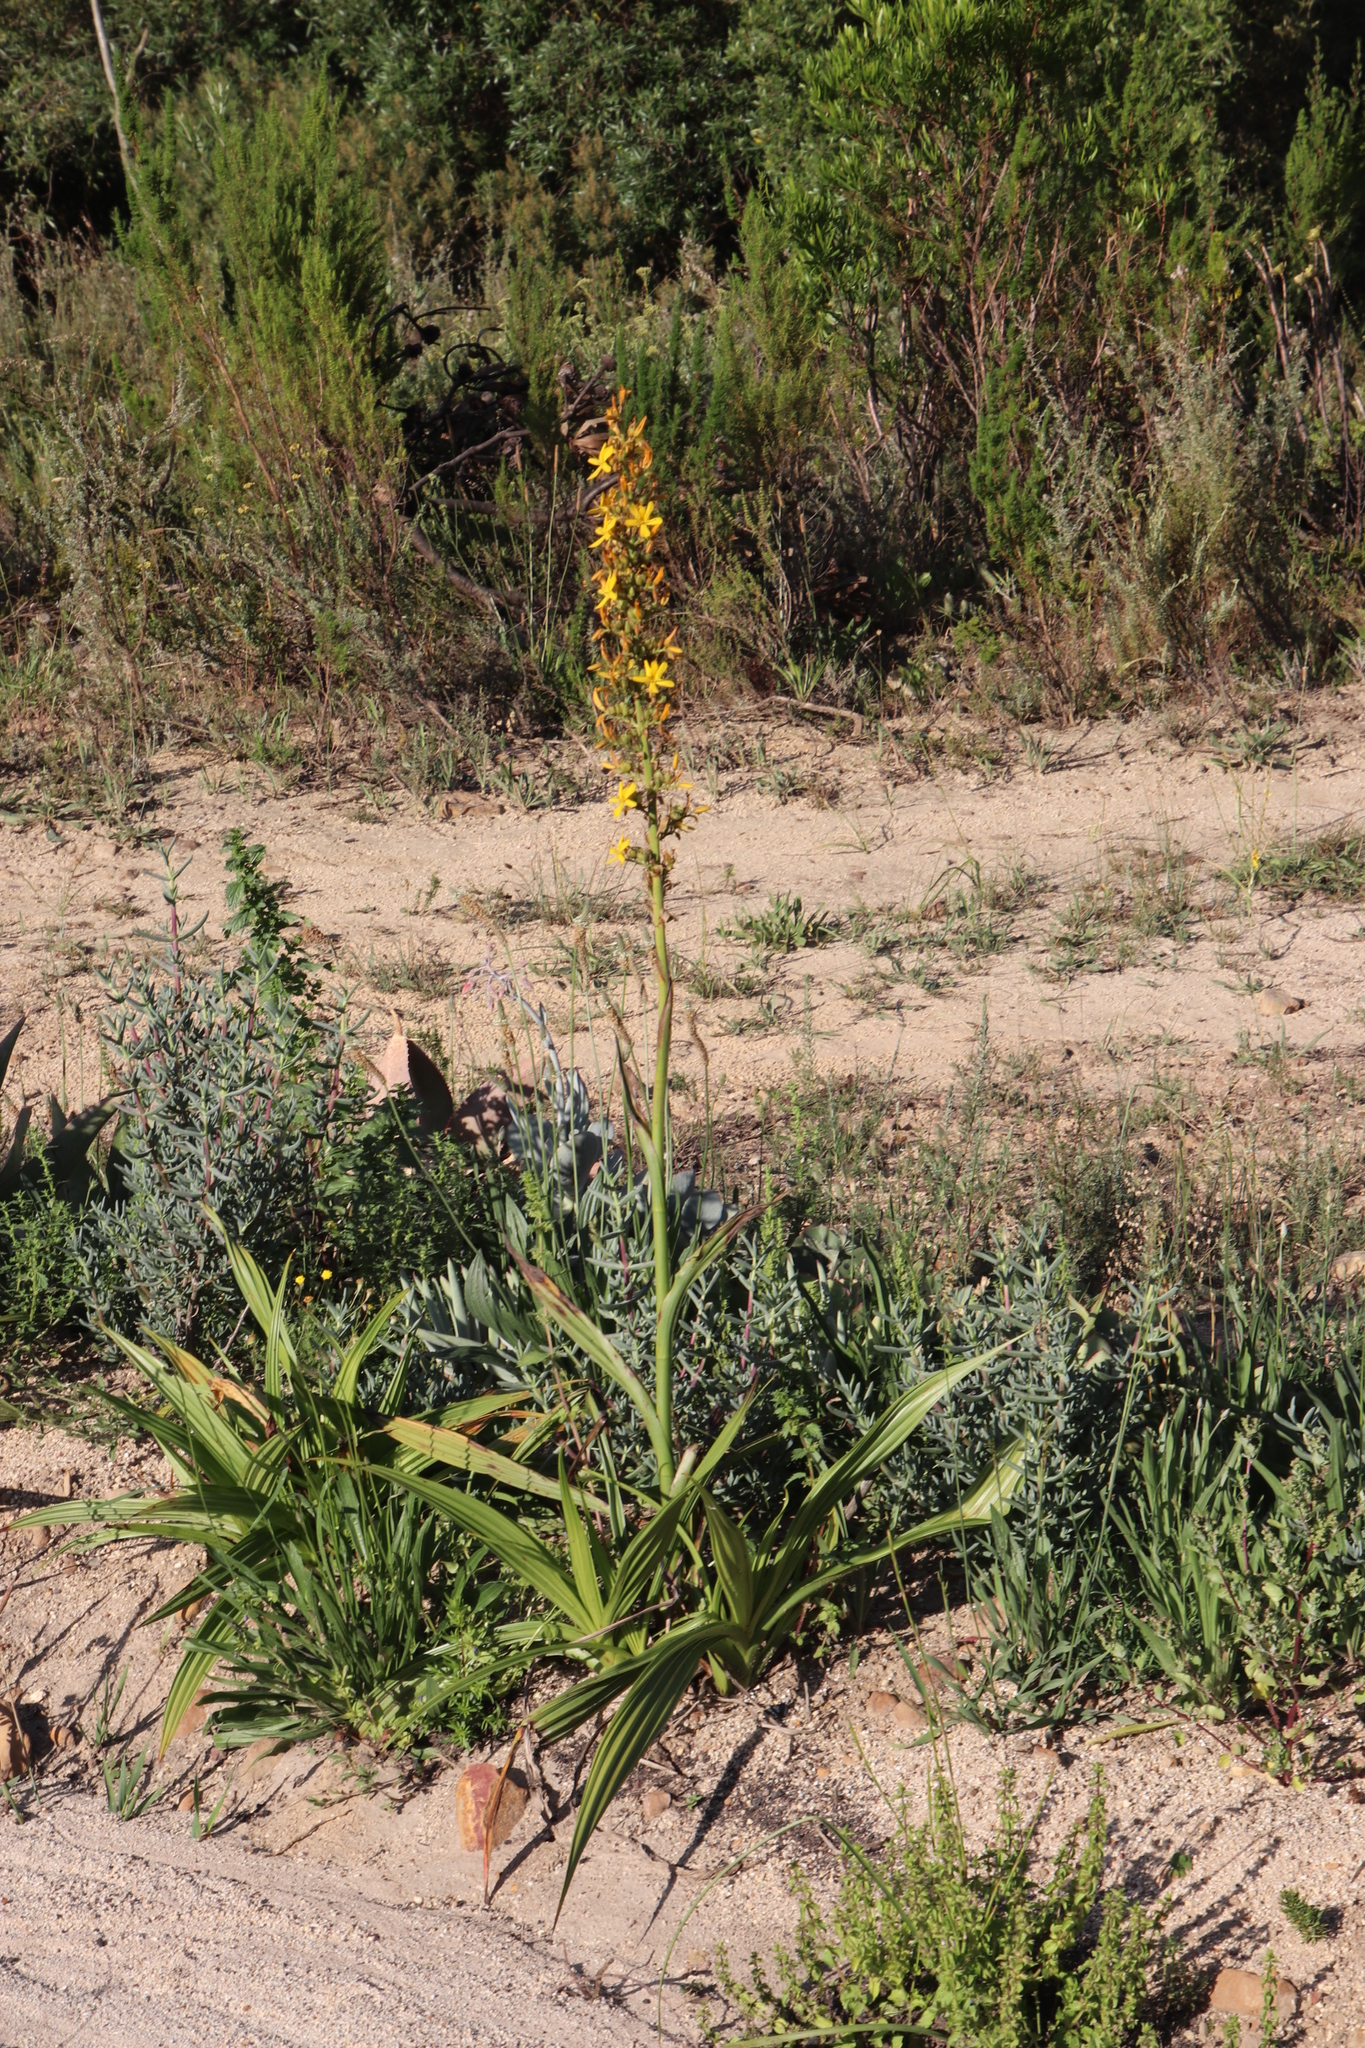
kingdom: Plantae
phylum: Tracheophyta
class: Liliopsida
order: Commelinales
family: Haemodoraceae
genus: Wachendorfia
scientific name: Wachendorfia thyrsiflora
